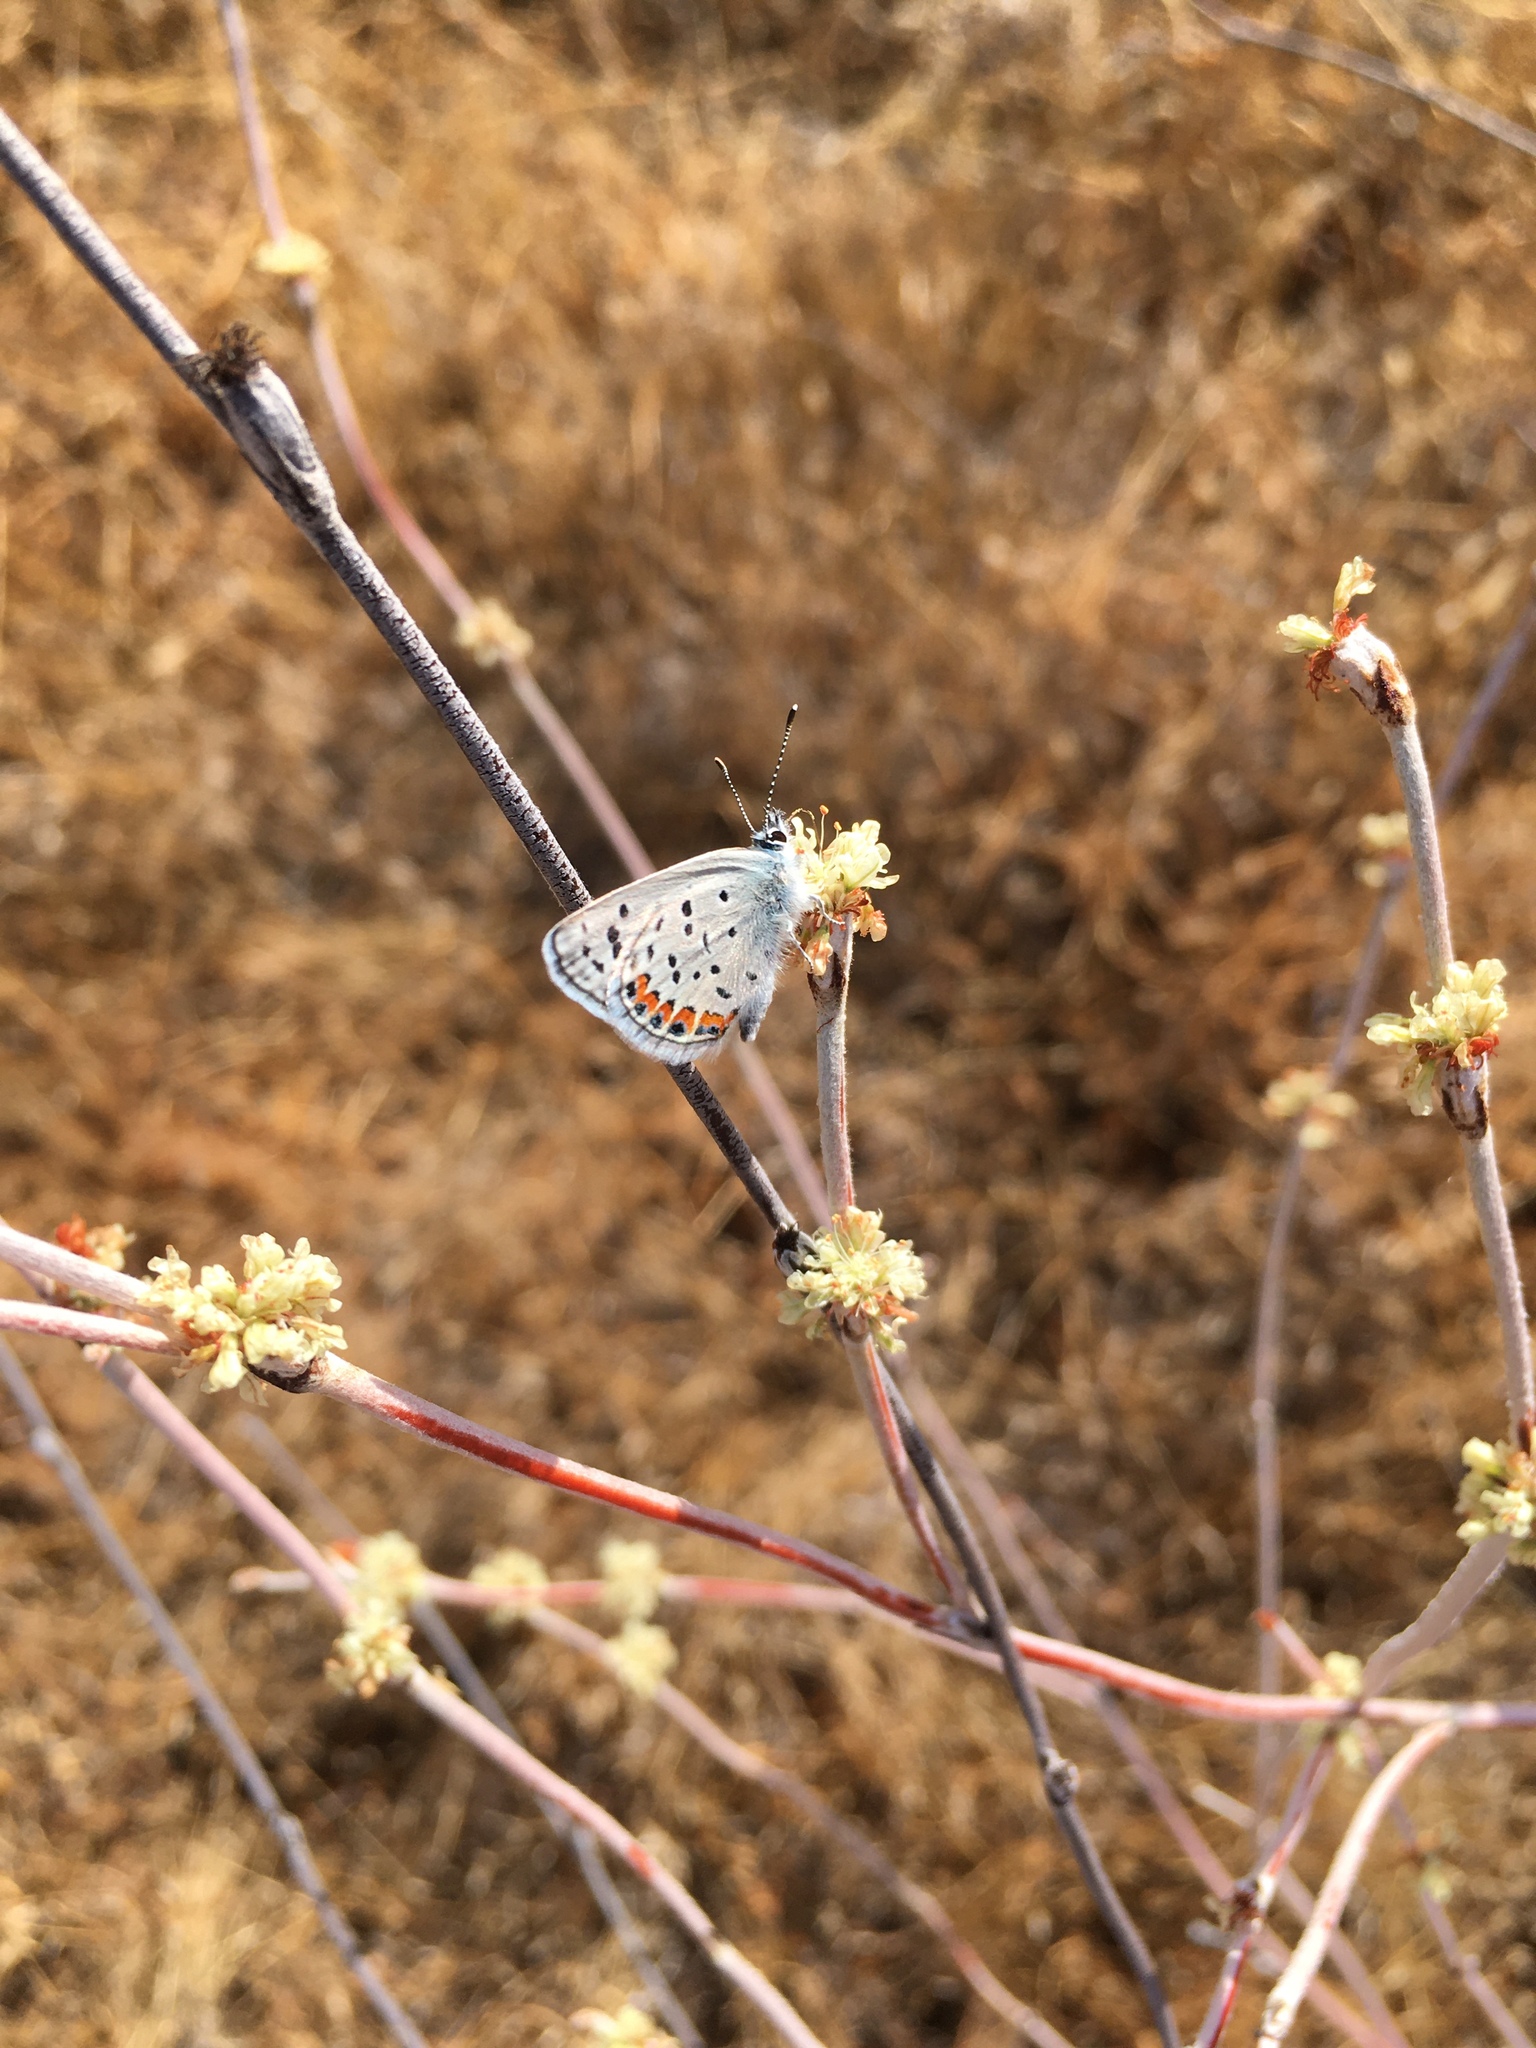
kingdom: Plantae
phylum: Tracheophyta
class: Magnoliopsida
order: Caryophyllales
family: Polygonaceae
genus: Eriogonum
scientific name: Eriogonum elongatum
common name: Long-stem wild buckwheat
